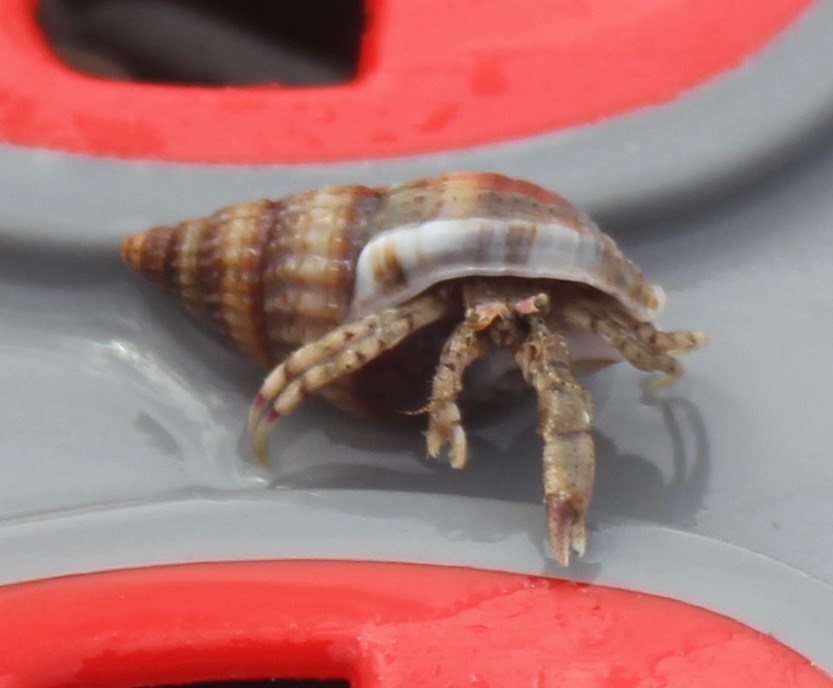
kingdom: Animalia
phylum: Arthropoda
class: Malacostraca
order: Decapoda
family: Diogenidae
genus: Diogenes
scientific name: Diogenes pugilator
